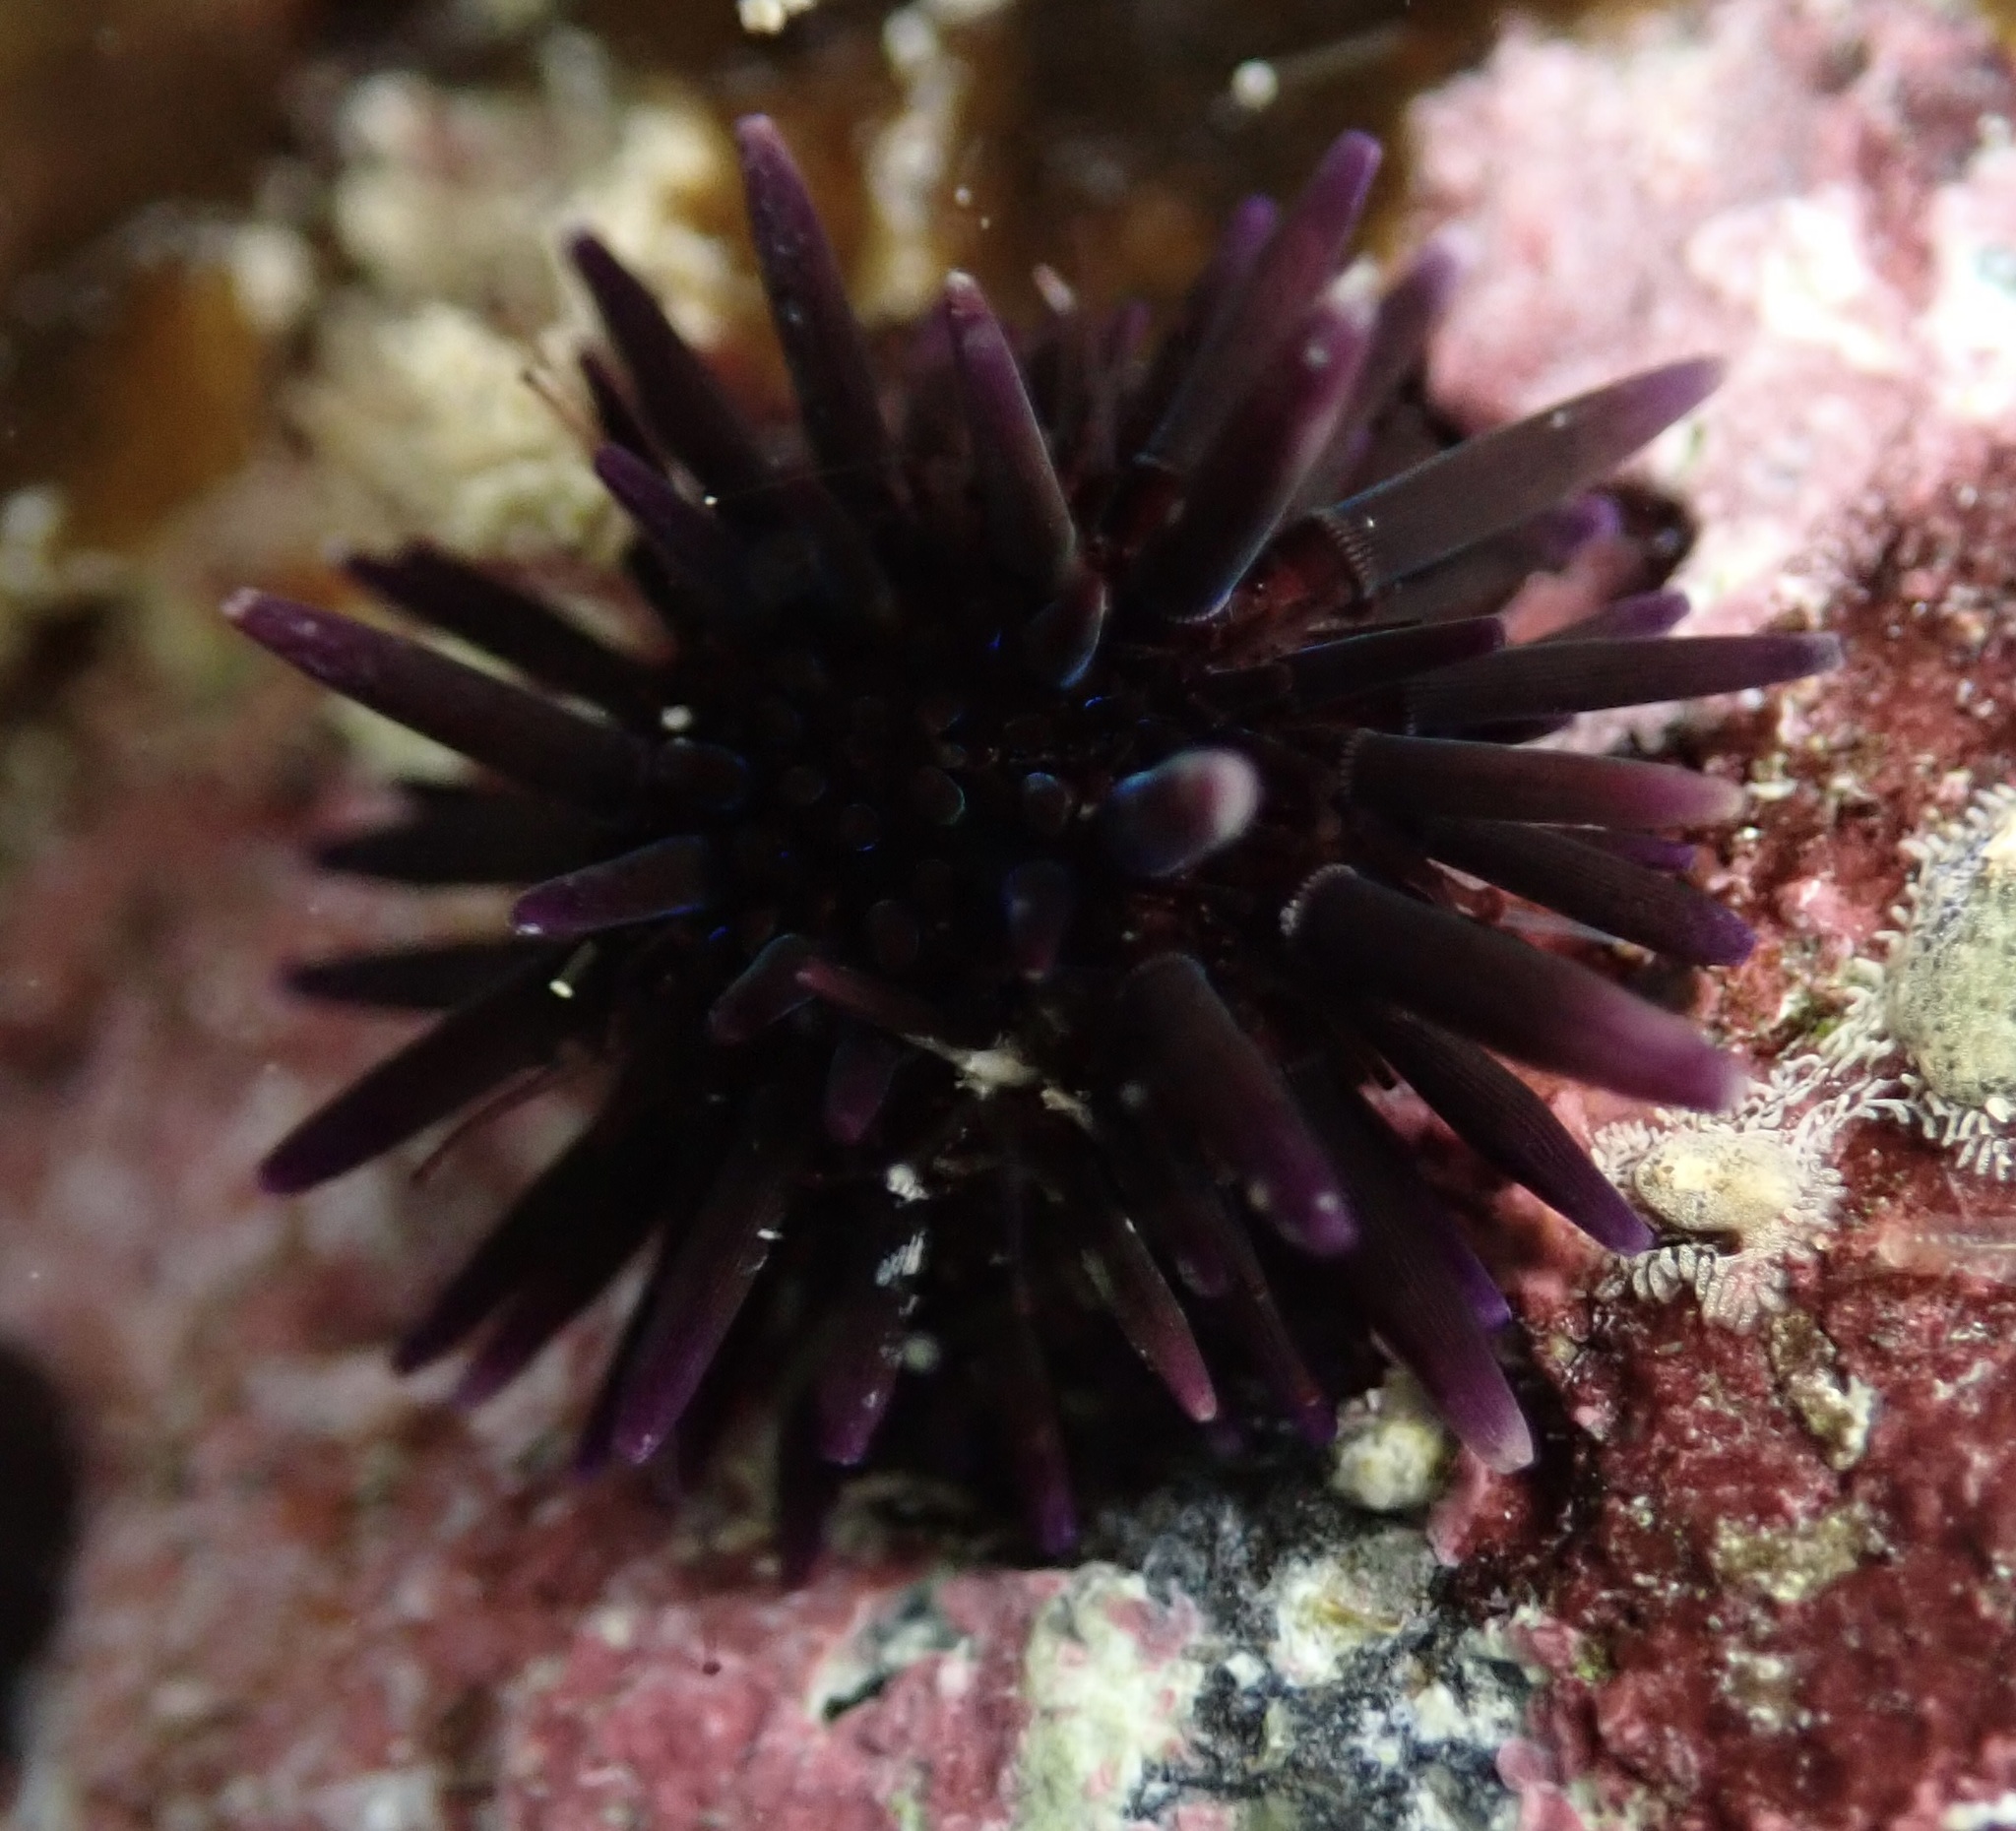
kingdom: Animalia
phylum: Echinodermata
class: Echinoidea
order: Camarodonta
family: Echinometridae
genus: Echinometra
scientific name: Echinometra oblonga
